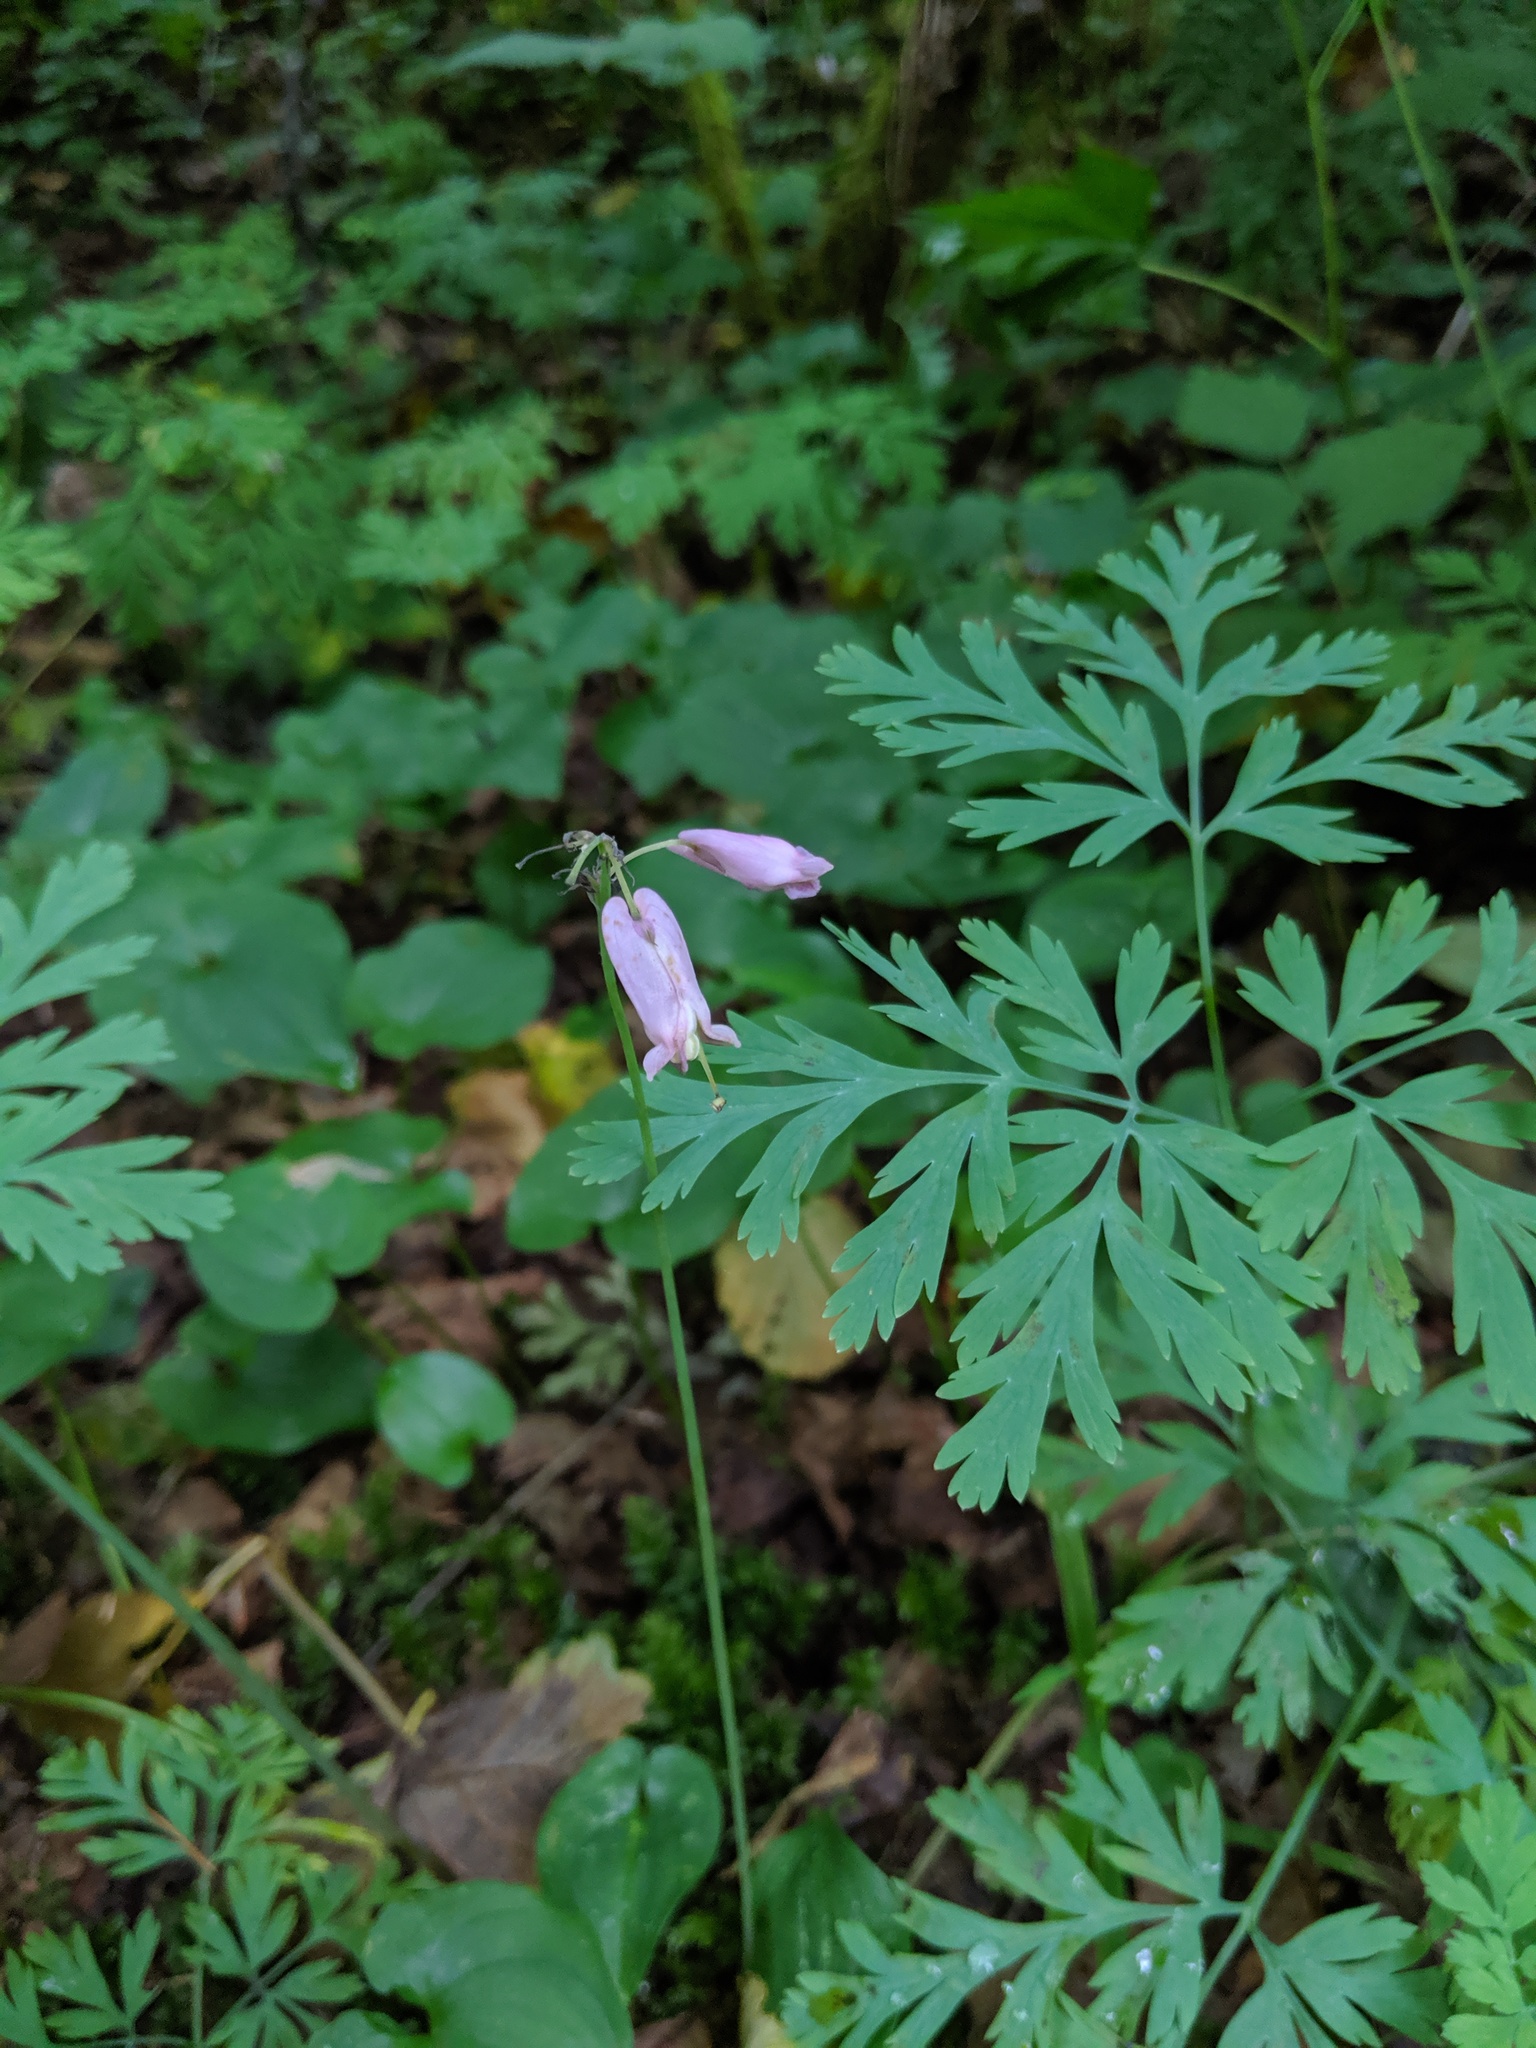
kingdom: Plantae
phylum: Tracheophyta
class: Magnoliopsida
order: Ranunculales
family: Papaveraceae
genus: Dicentra
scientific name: Dicentra formosa
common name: Bleeding-heart
